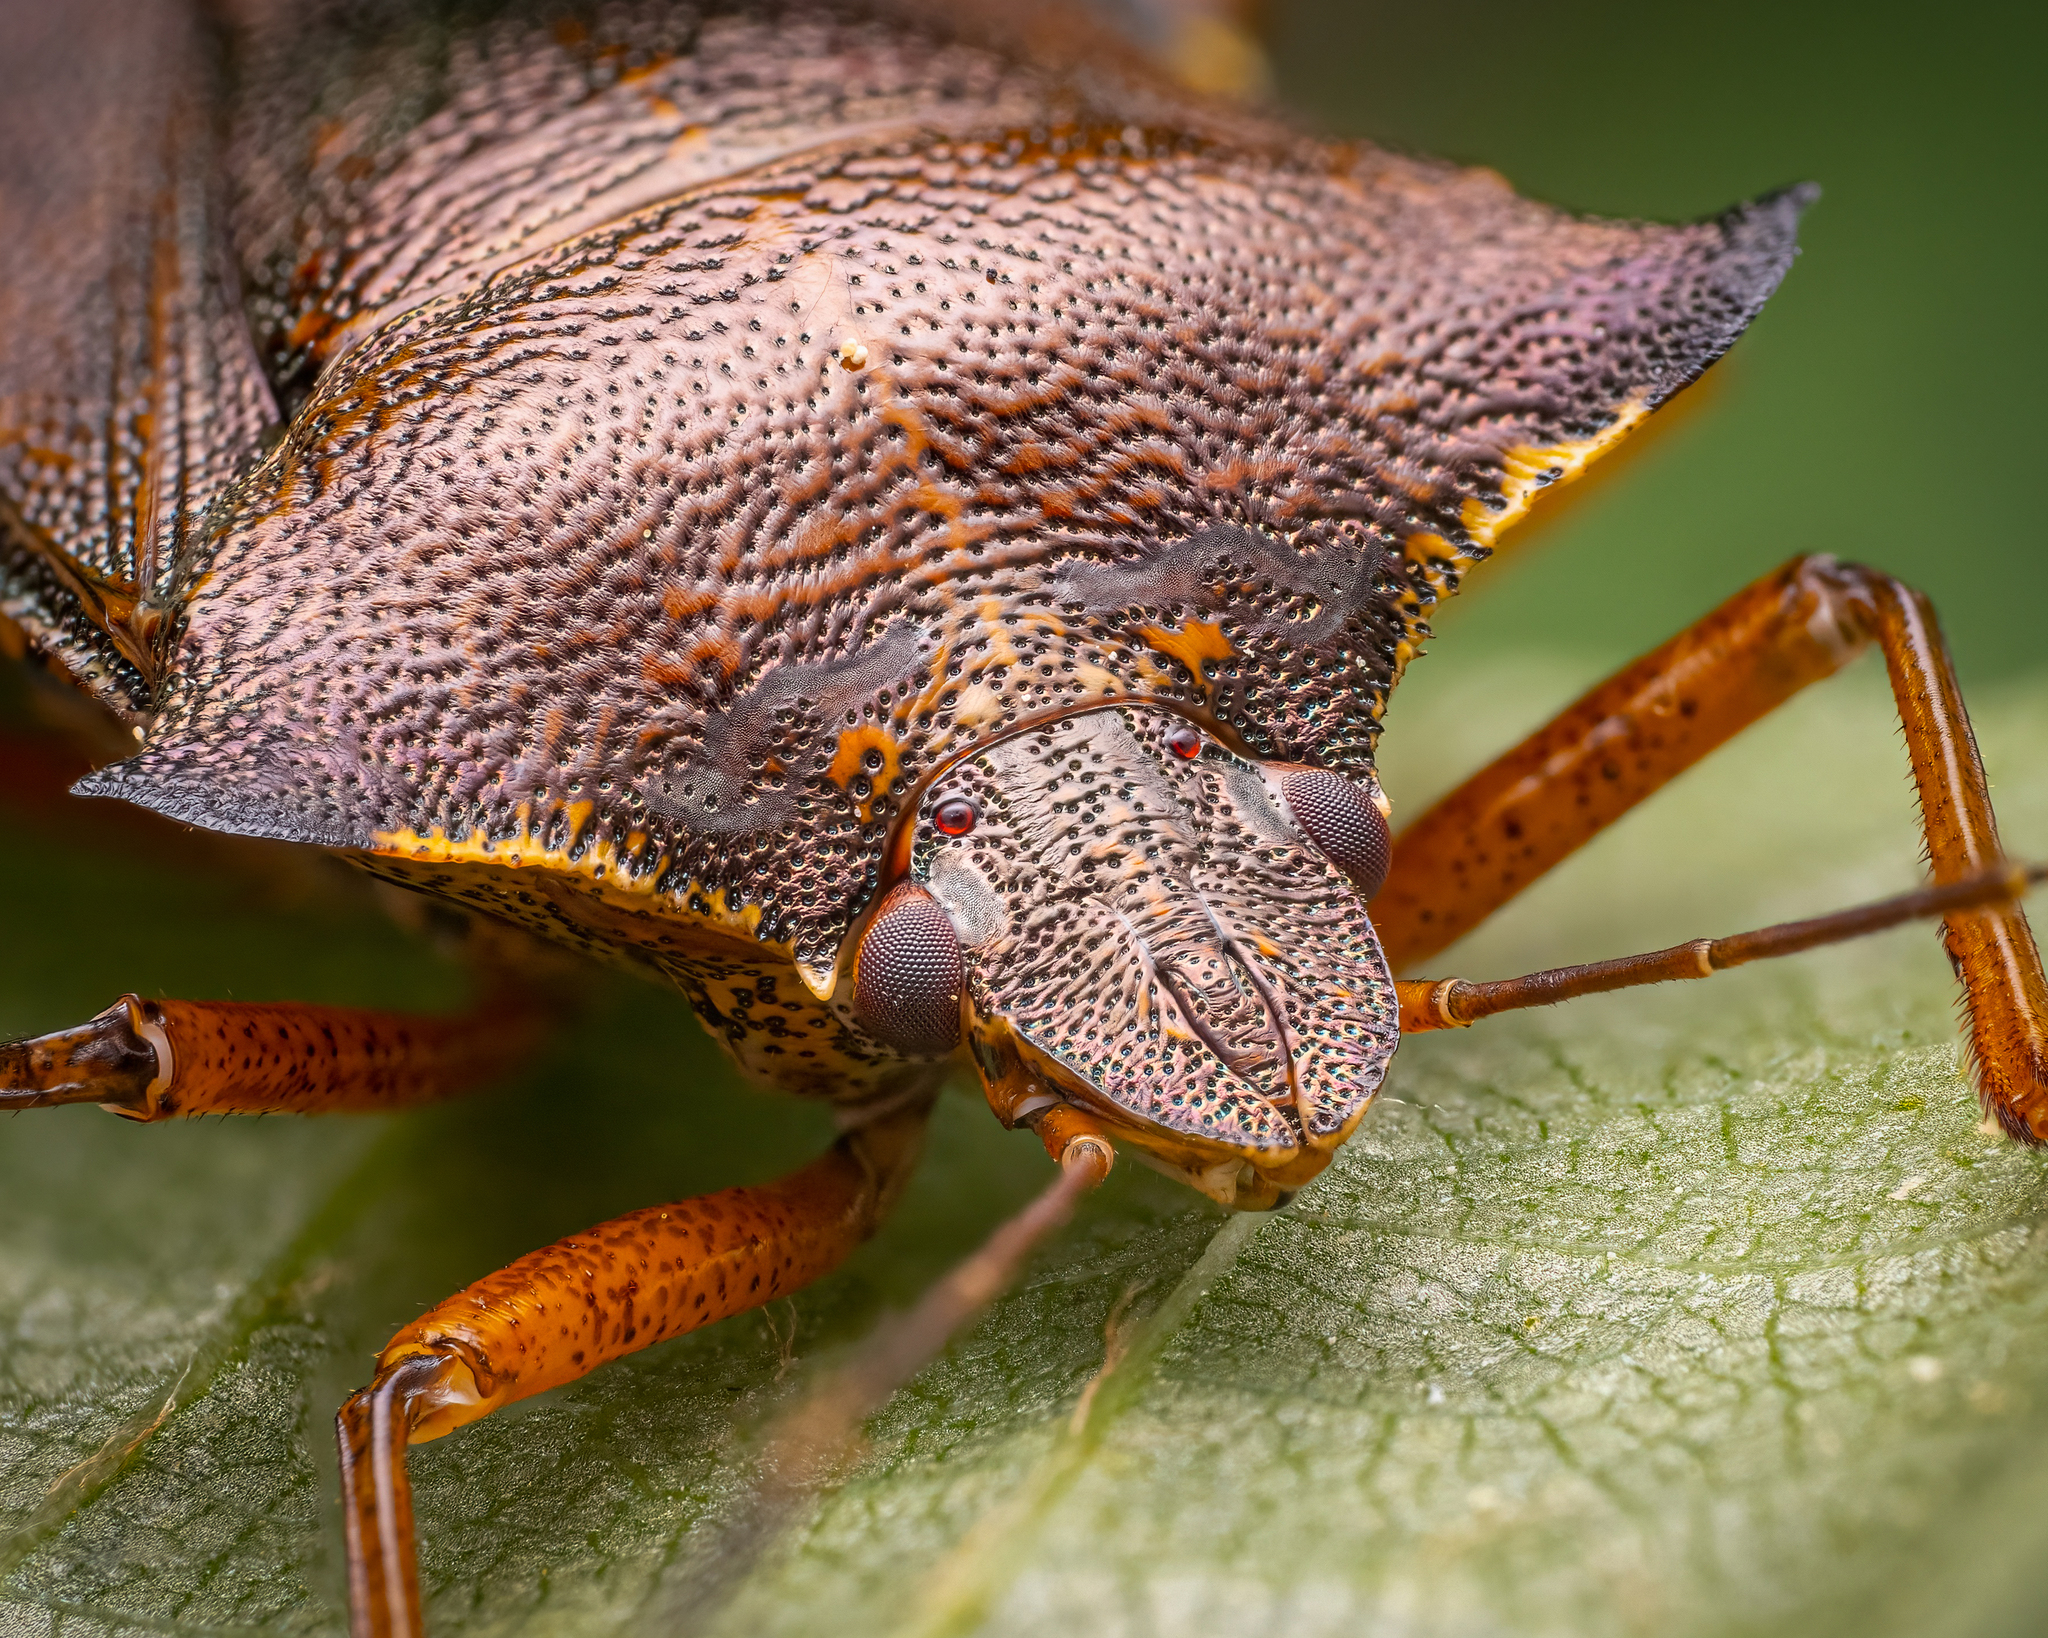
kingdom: Animalia
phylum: Arthropoda
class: Insecta
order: Hemiptera
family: Pentatomidae
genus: Pentatoma
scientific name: Pentatoma rufipes
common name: Forest bug
